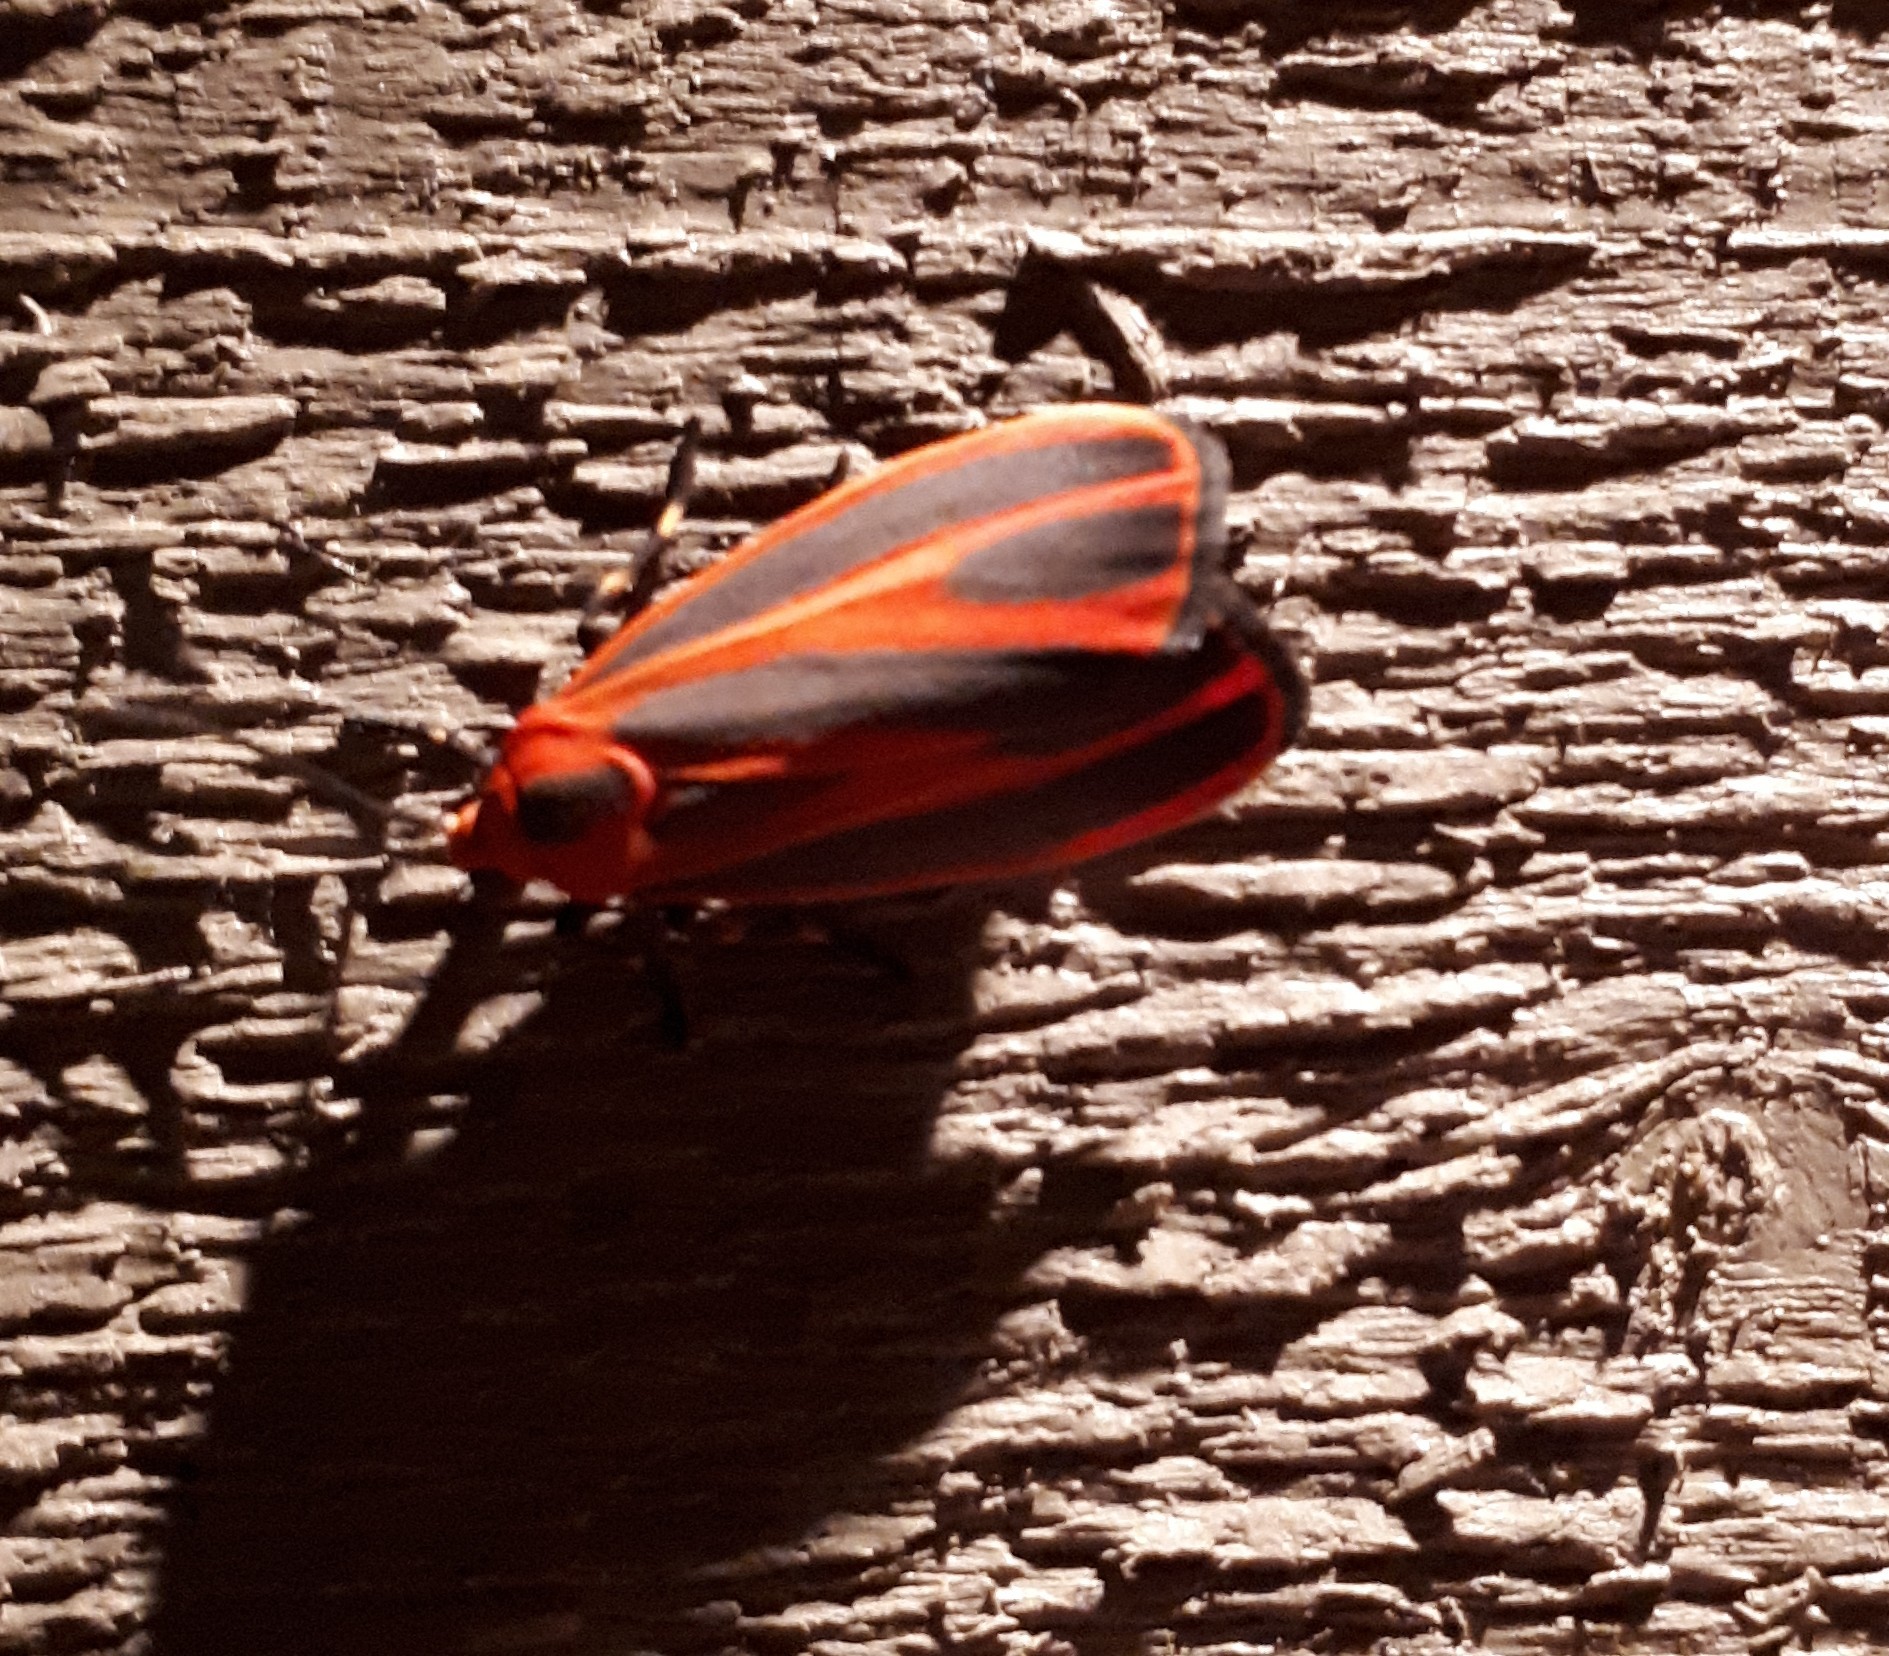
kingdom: Animalia
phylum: Arthropoda
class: Insecta
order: Lepidoptera
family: Erebidae
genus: Hypoprepia
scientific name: Hypoprepia miniata
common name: Scarlet-winged lichen moth
